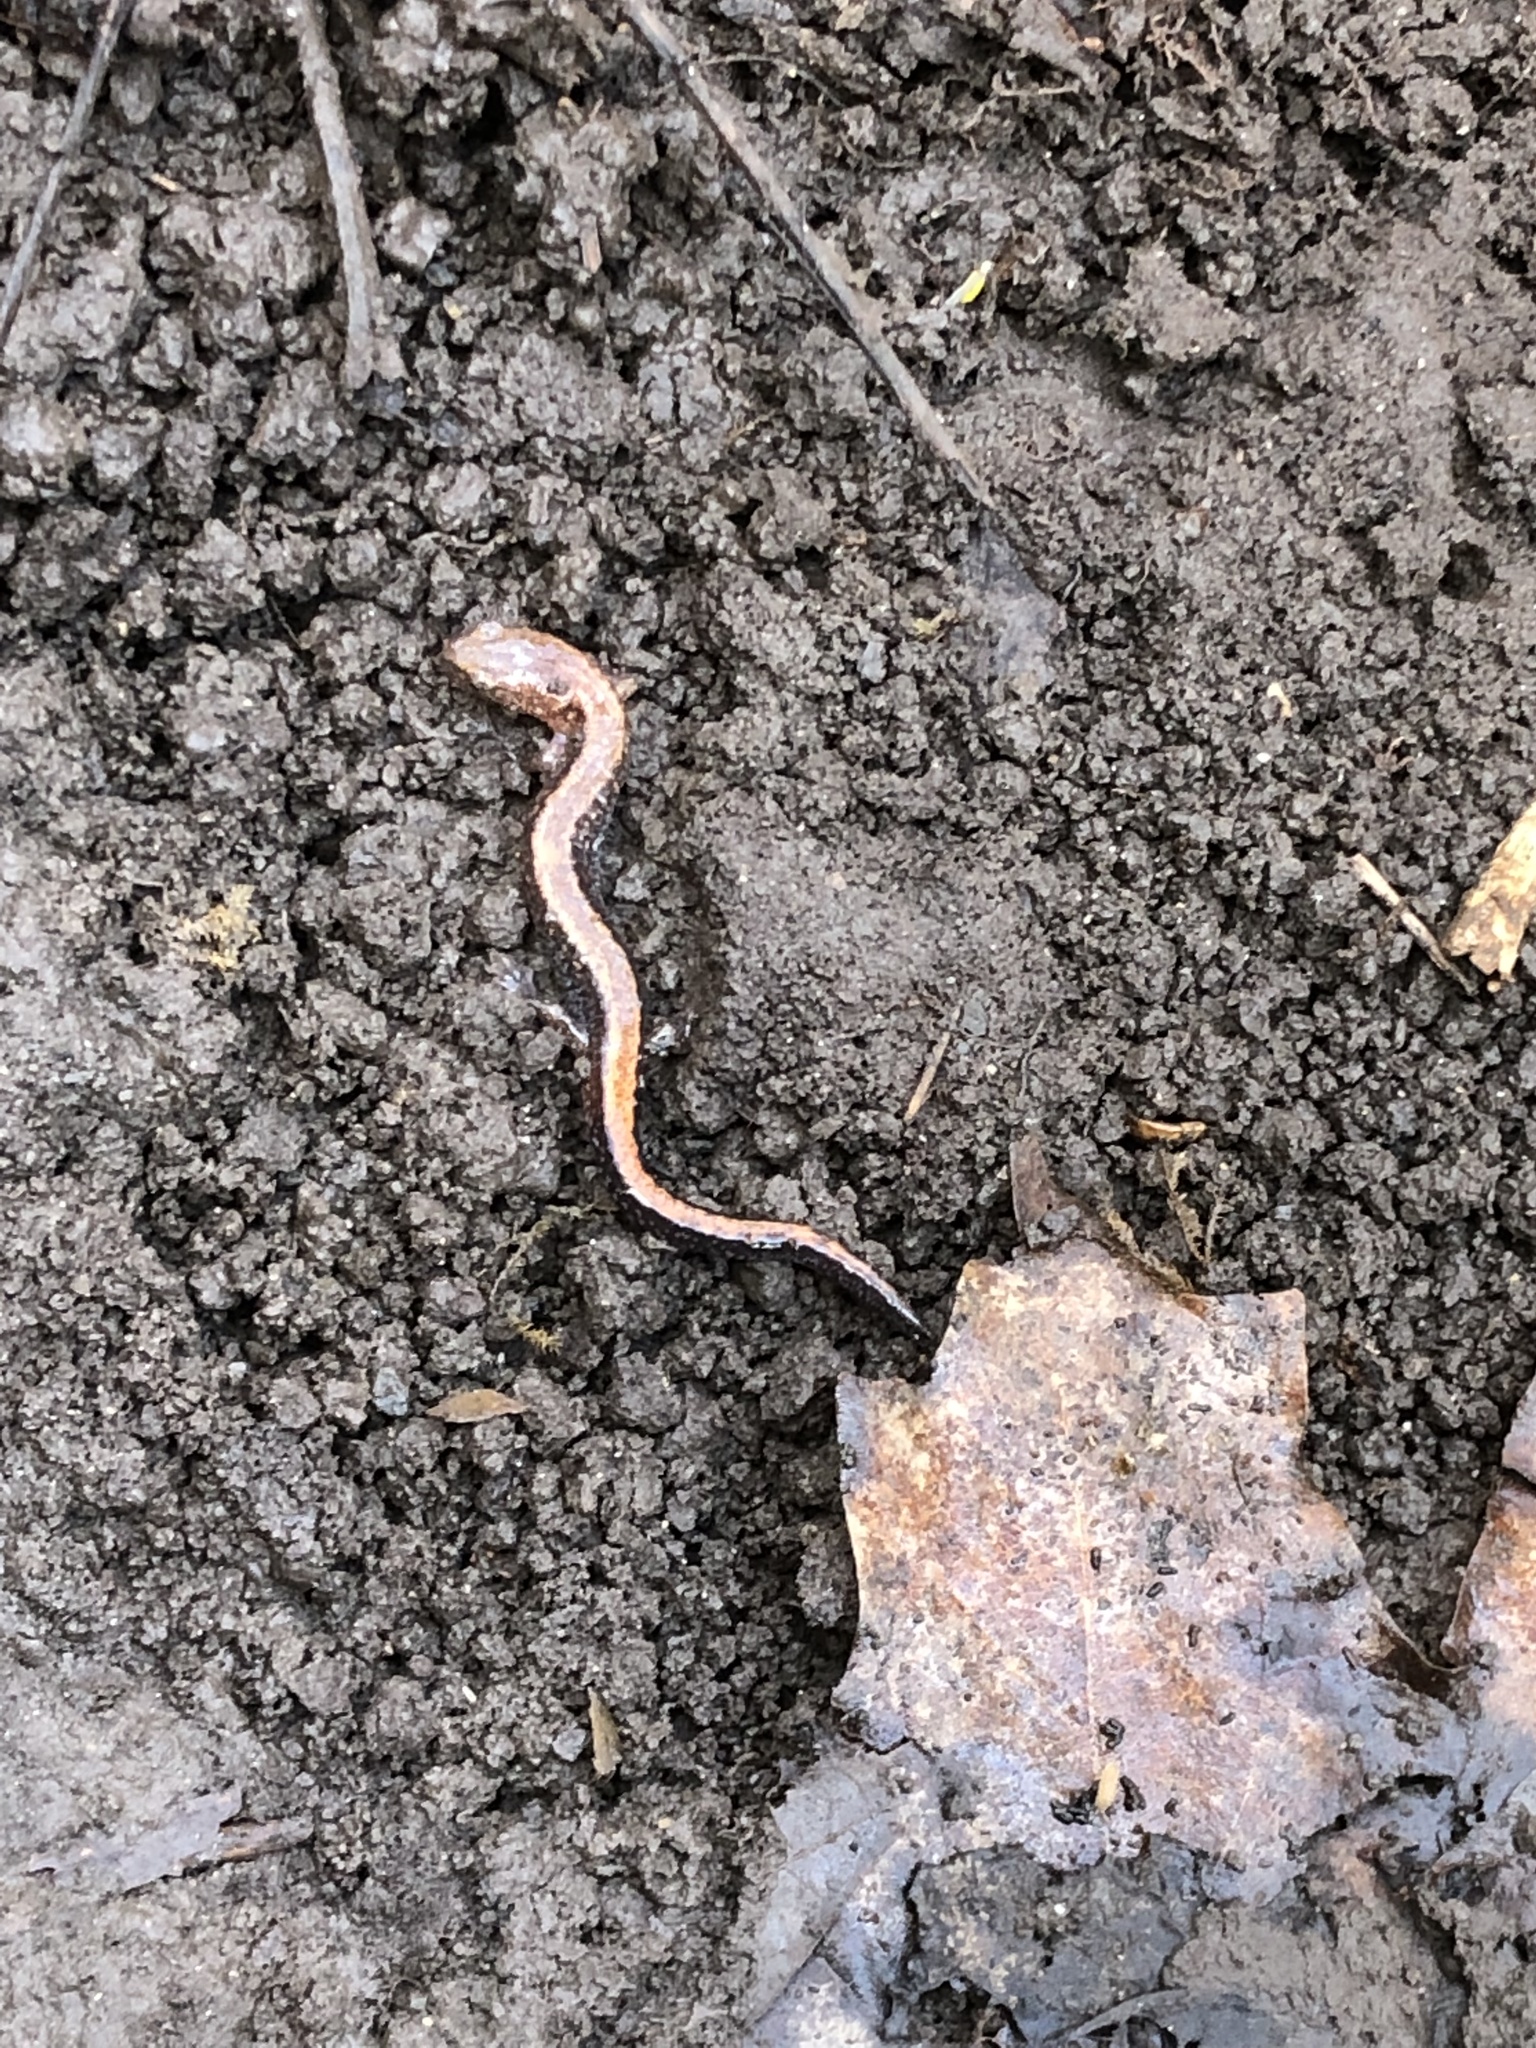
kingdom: Animalia
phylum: Chordata
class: Amphibia
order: Caudata
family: Plethodontidae
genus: Plethodon
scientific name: Plethodon cinereus
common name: Redback salamander
